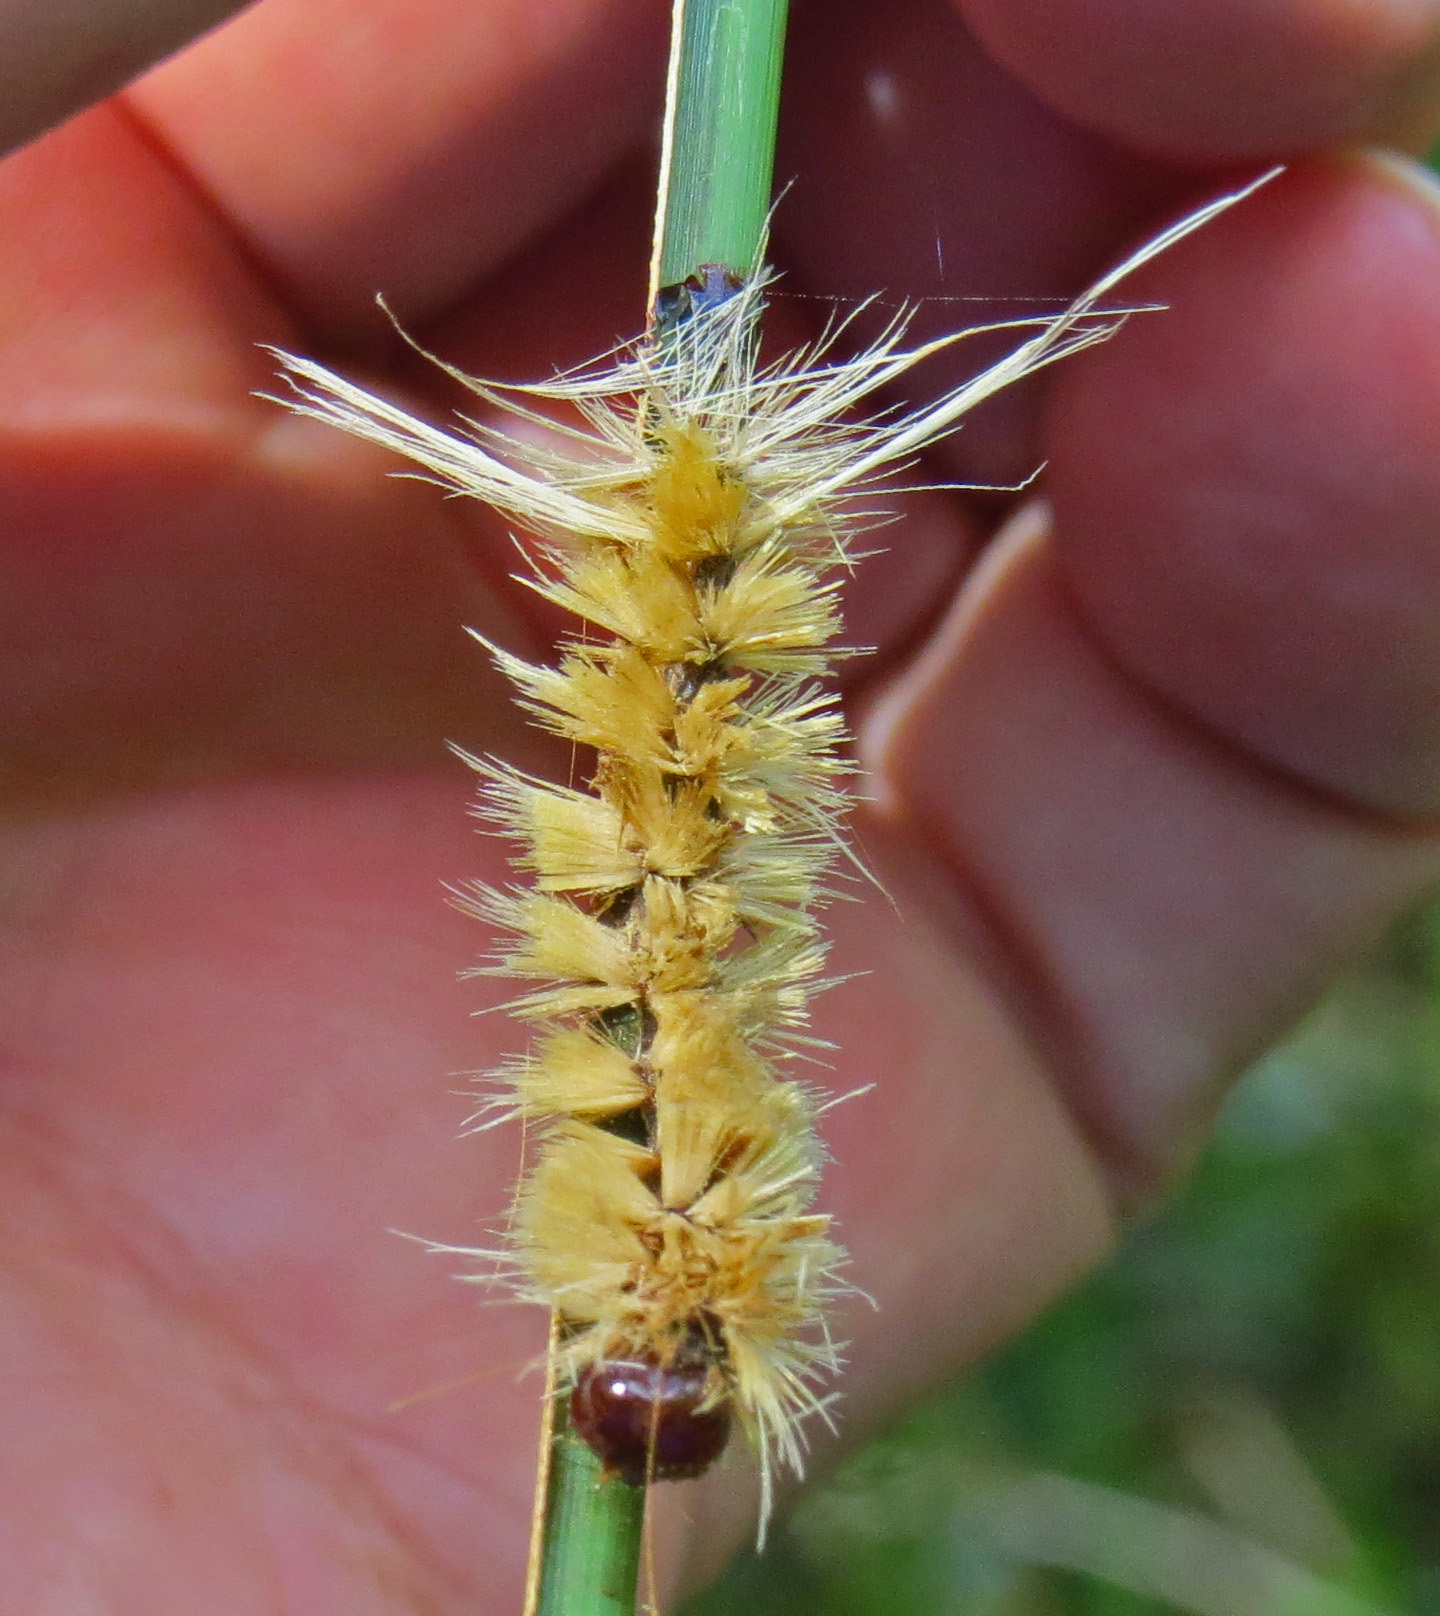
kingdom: Animalia
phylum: Arthropoda
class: Insecta
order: Lepidoptera
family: Erebidae
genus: Halysidota
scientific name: Halysidota harrisii
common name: Sycamore tussock moth
